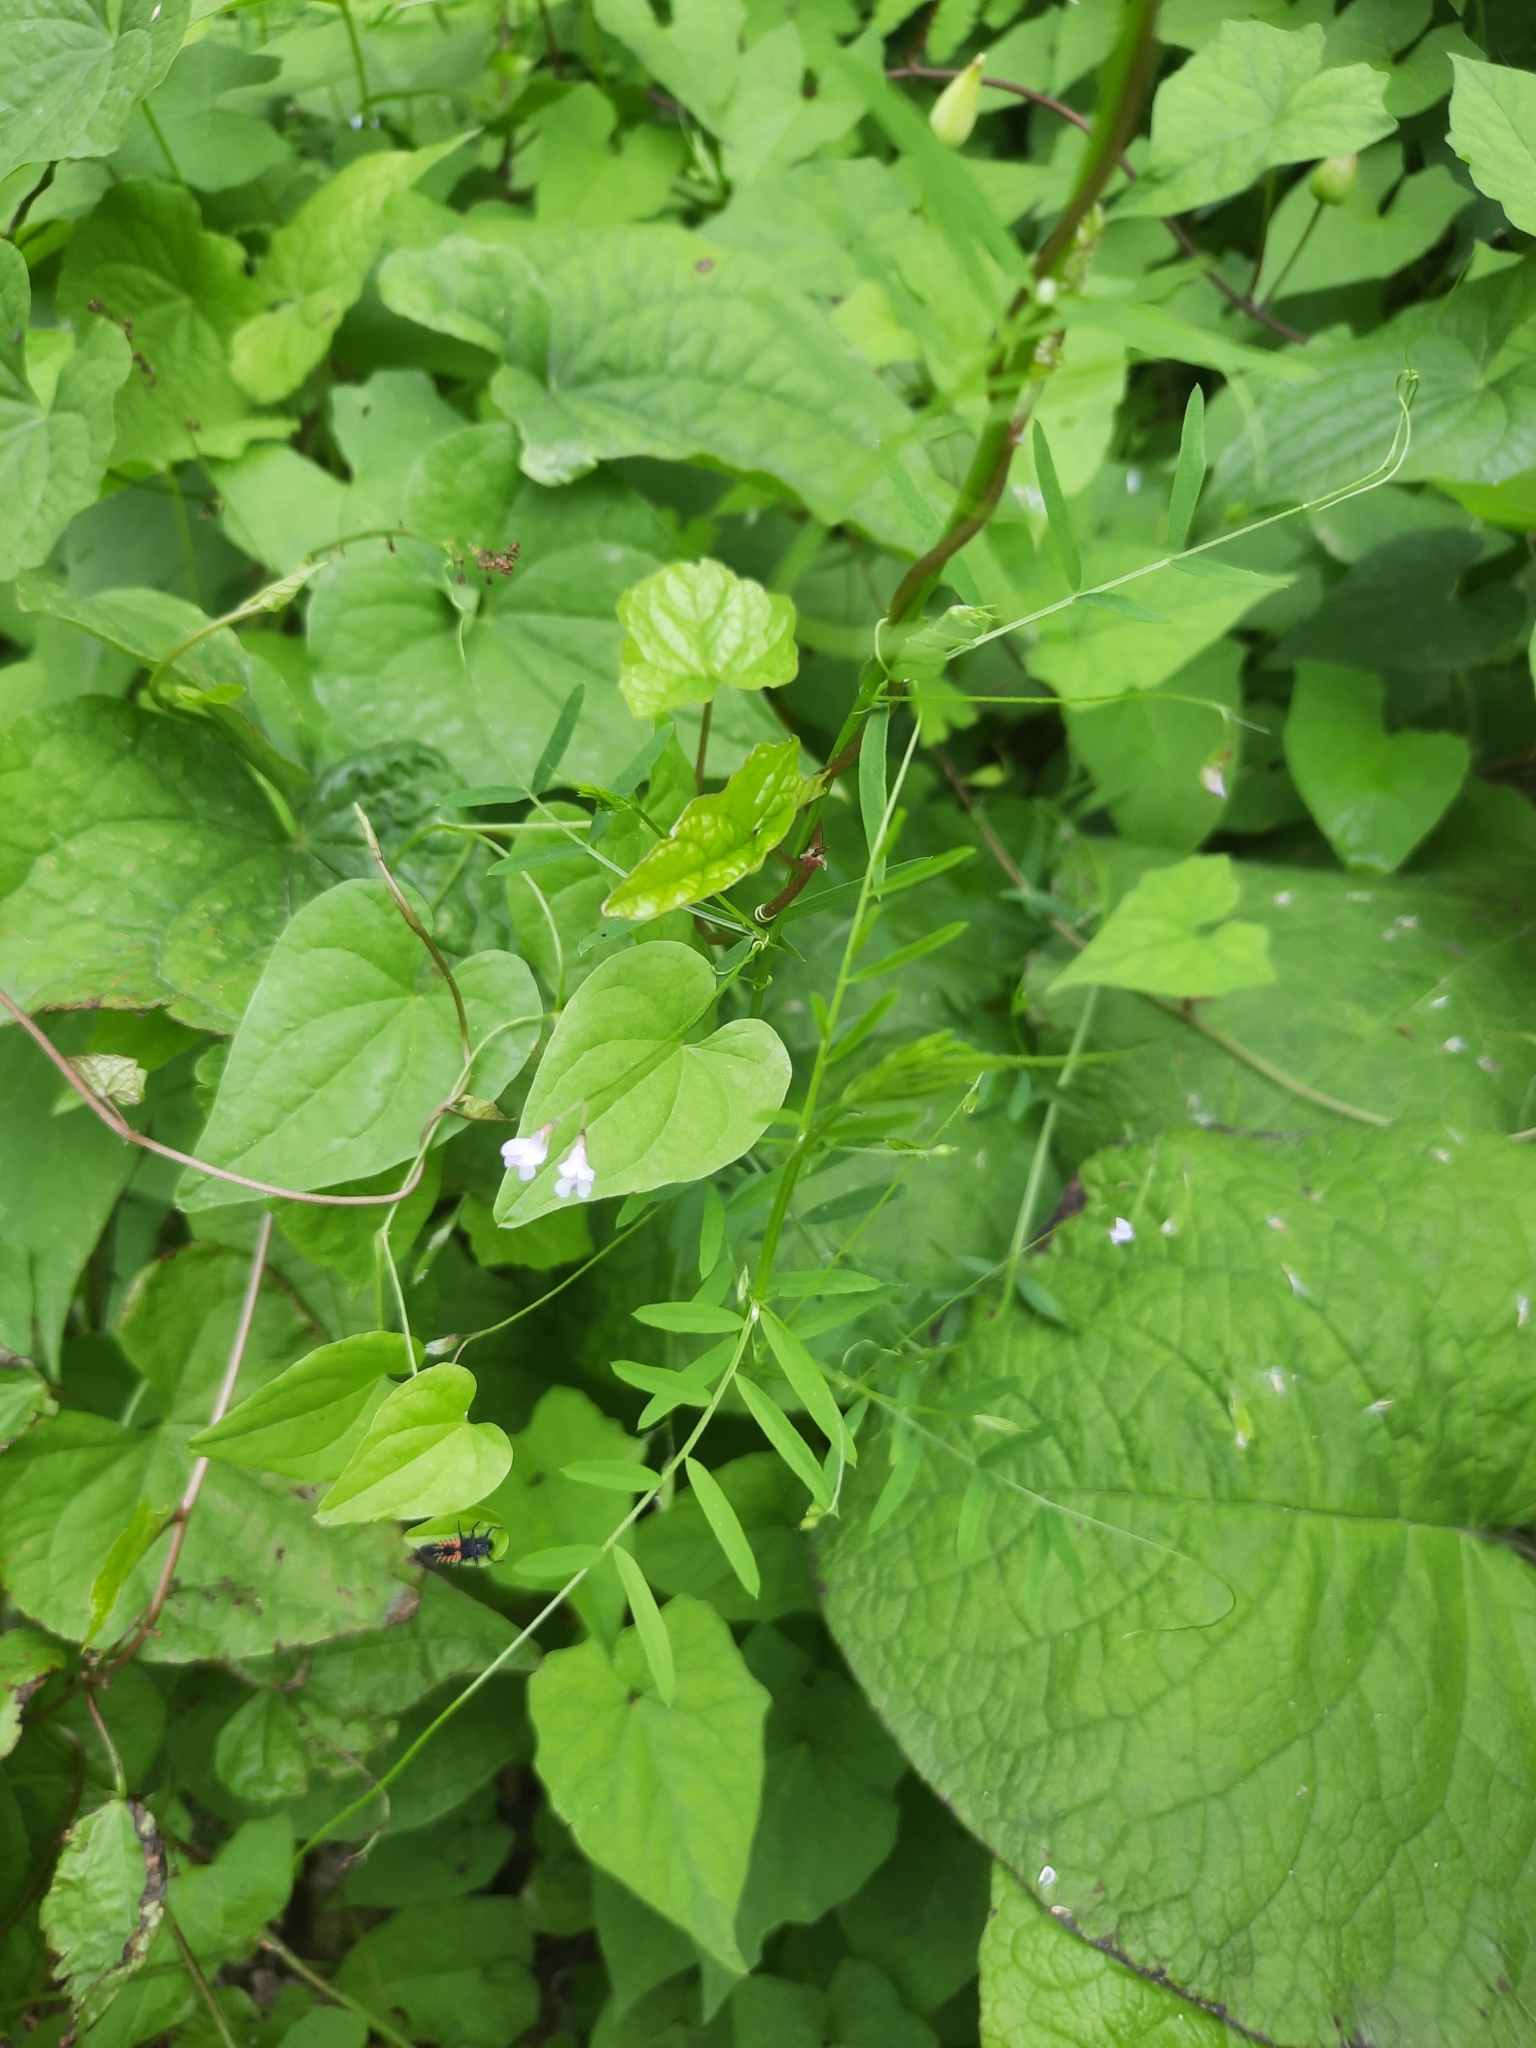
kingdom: Plantae
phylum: Tracheophyta
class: Magnoliopsida
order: Fabales
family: Fabaceae
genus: Vicia
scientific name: Vicia tetrasperma
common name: Smooth tare
